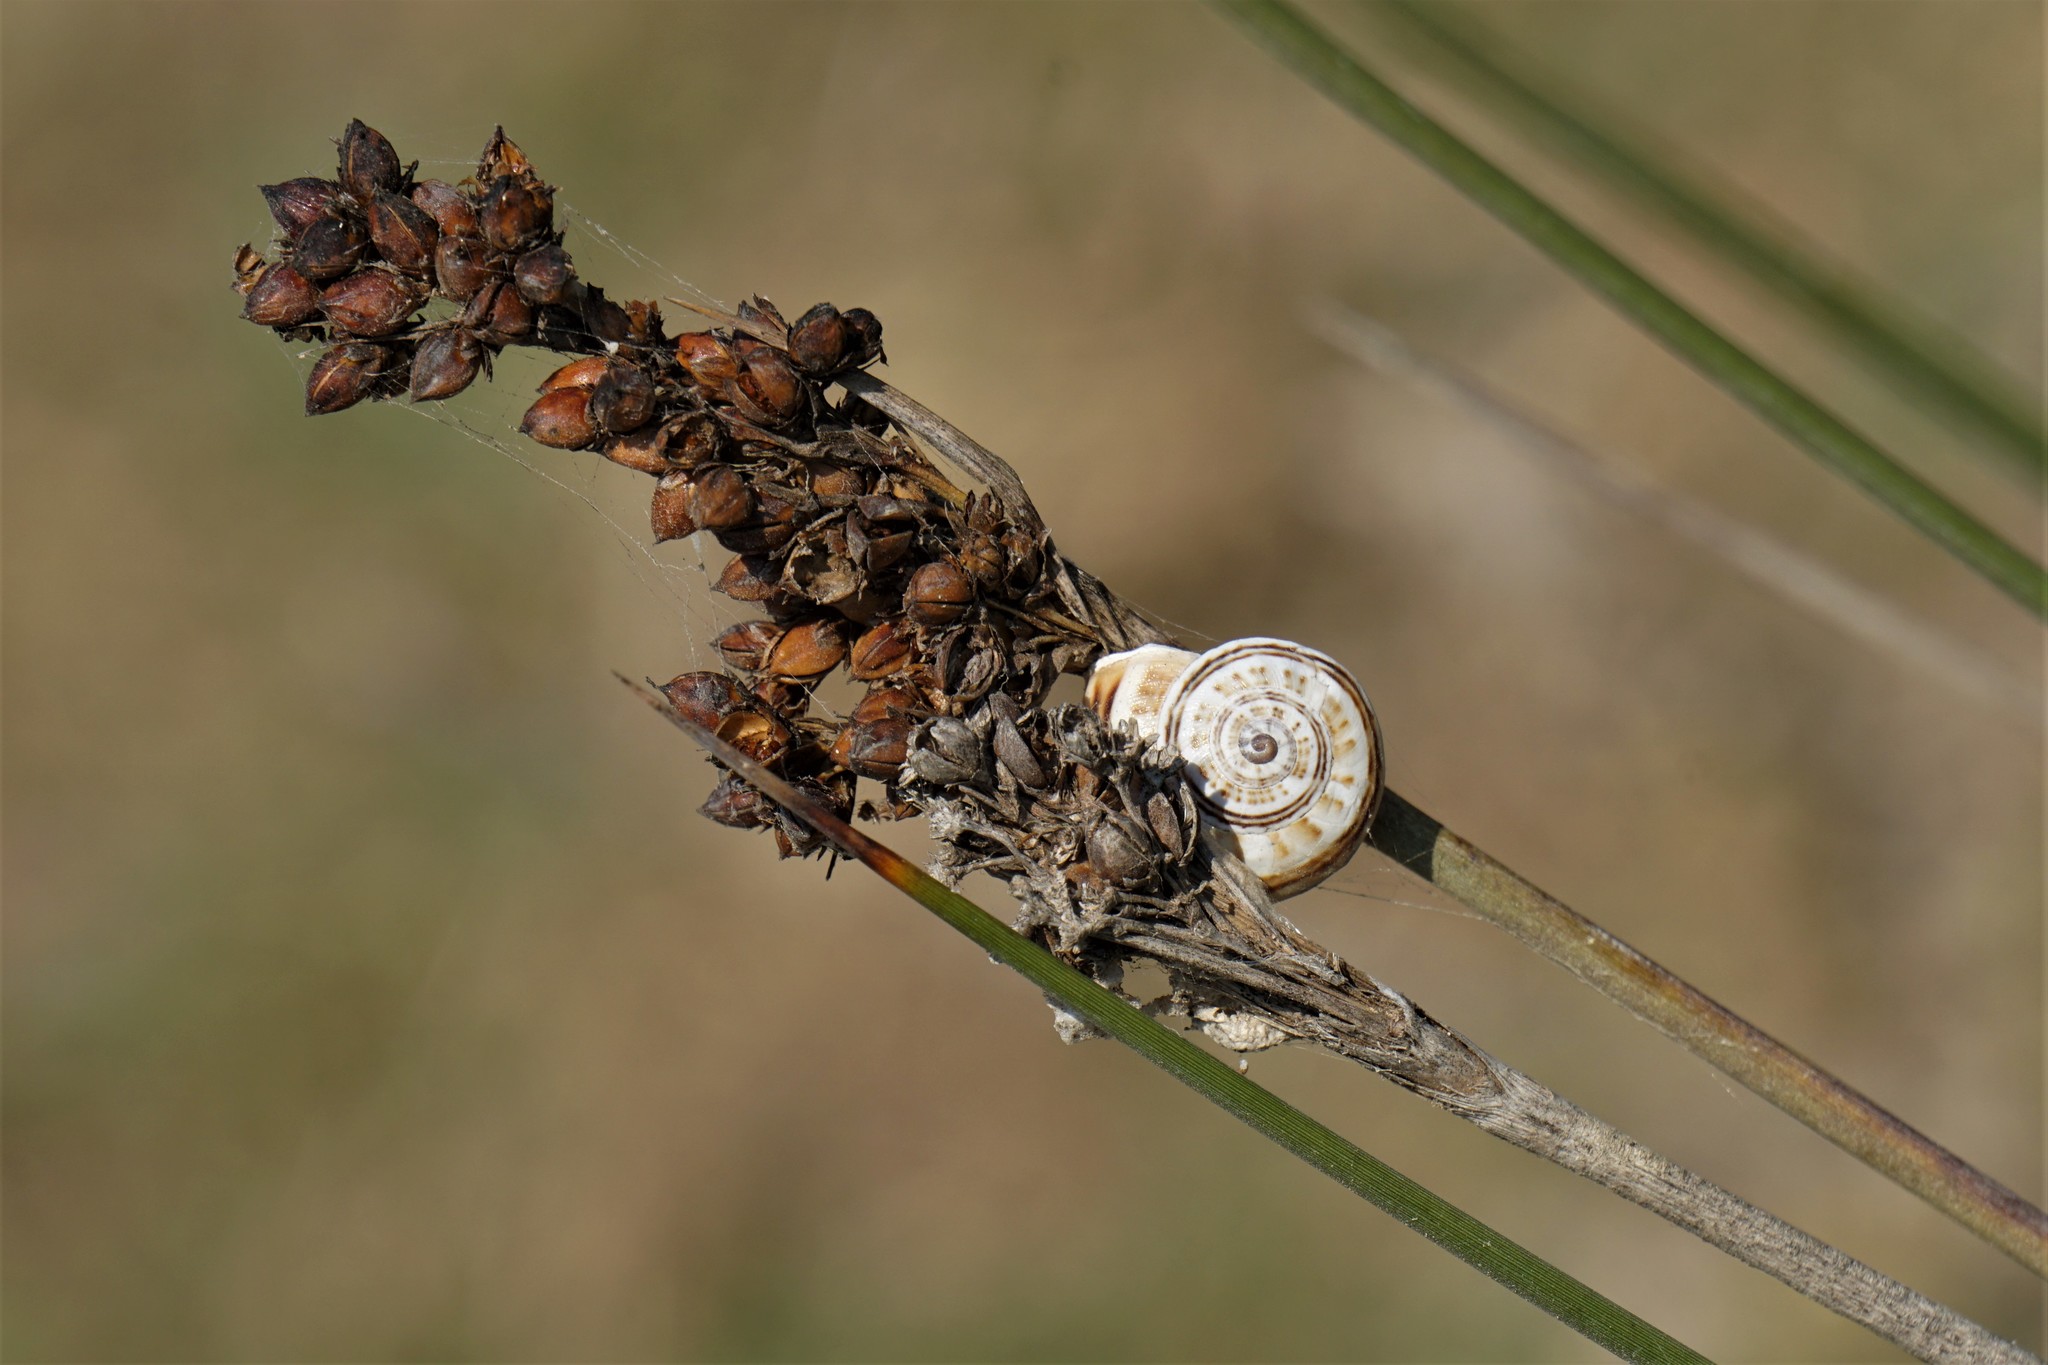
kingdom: Animalia
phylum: Mollusca
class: Gastropoda
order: Stylommatophora
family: Helicidae
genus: Theba
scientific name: Theba pisana
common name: White snail
